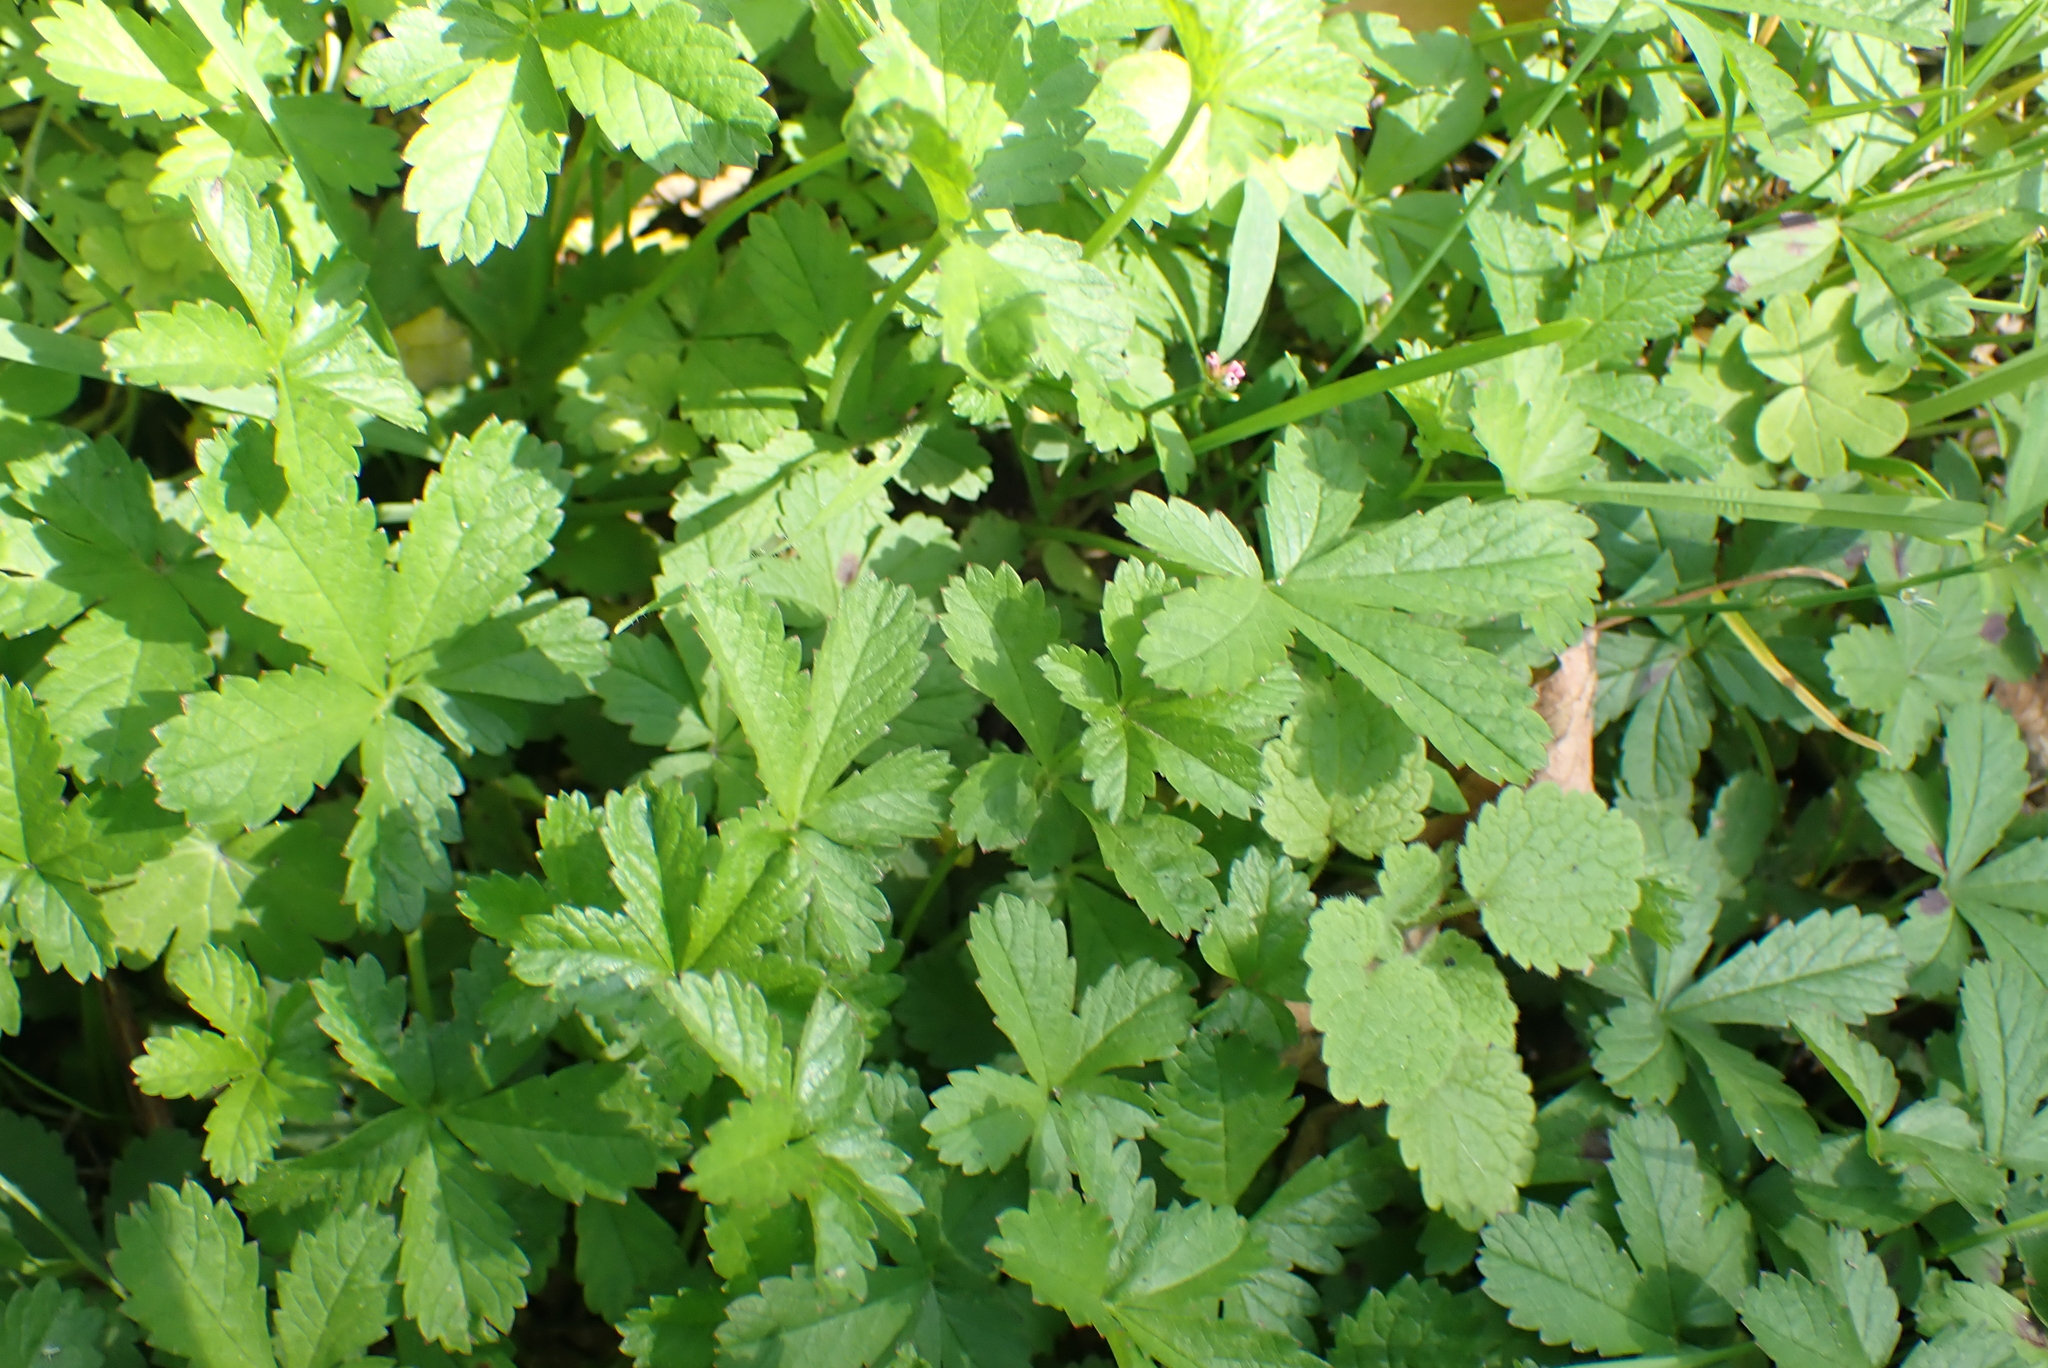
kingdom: Plantae
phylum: Tracheophyta
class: Magnoliopsida
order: Rosales
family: Rosaceae
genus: Potentilla
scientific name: Potentilla reptans
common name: Creeping cinquefoil
